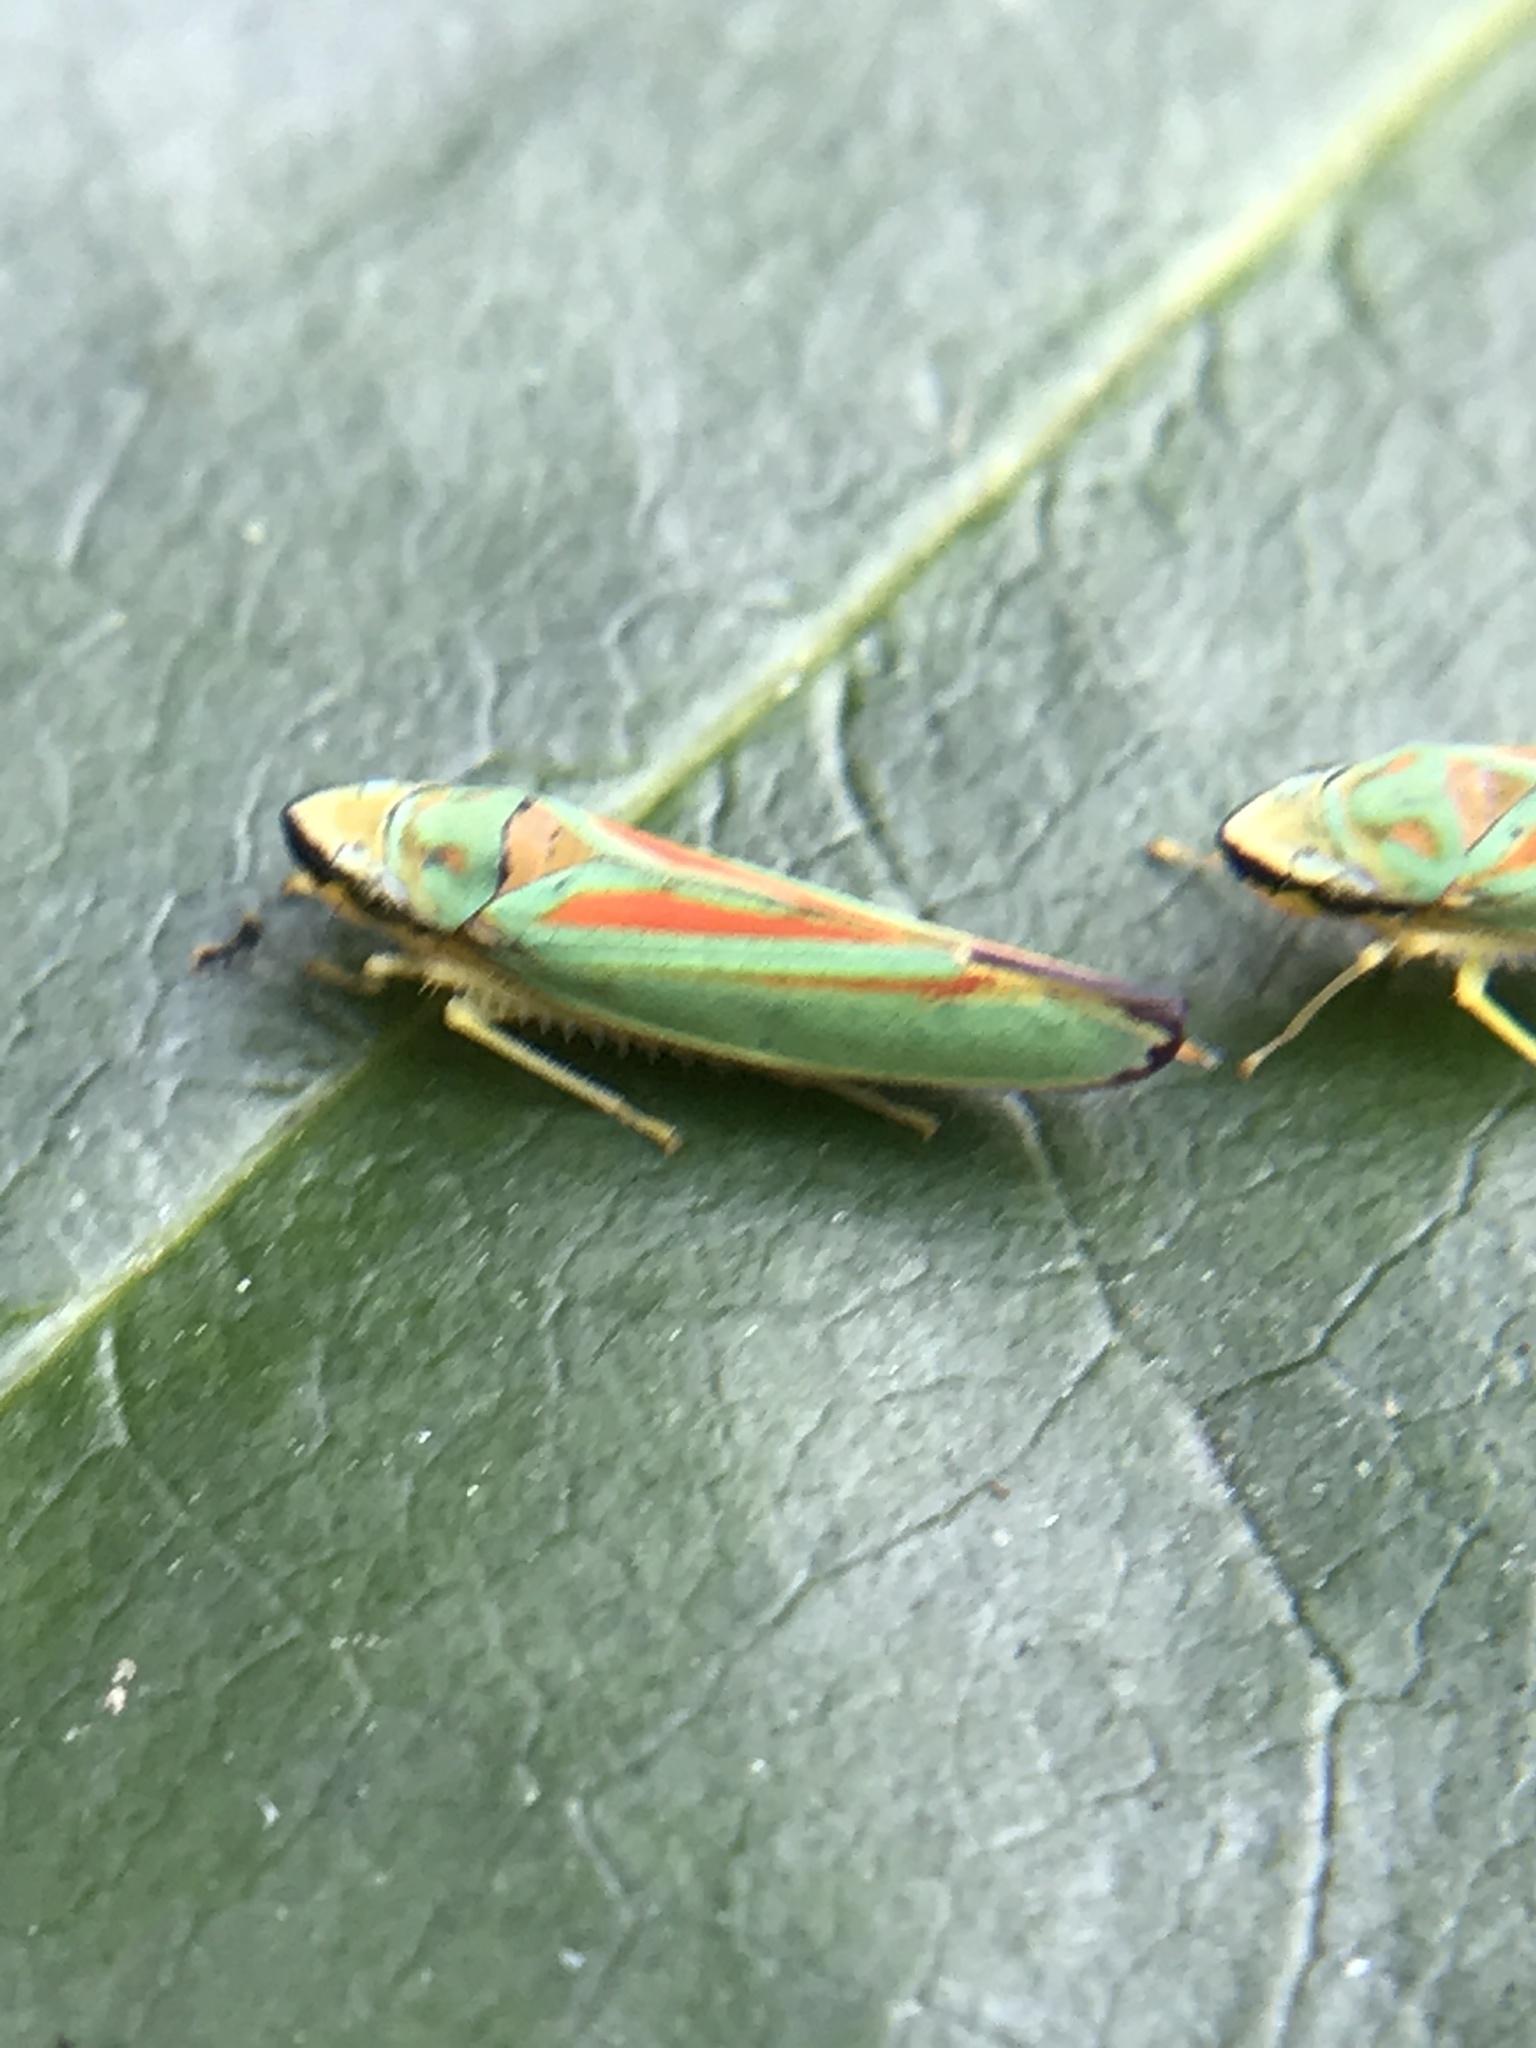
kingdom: Animalia
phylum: Arthropoda
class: Insecta
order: Hemiptera
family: Cicadellidae
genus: Graphocephala
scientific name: Graphocephala fennahi
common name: Rhododendron leafhopper
